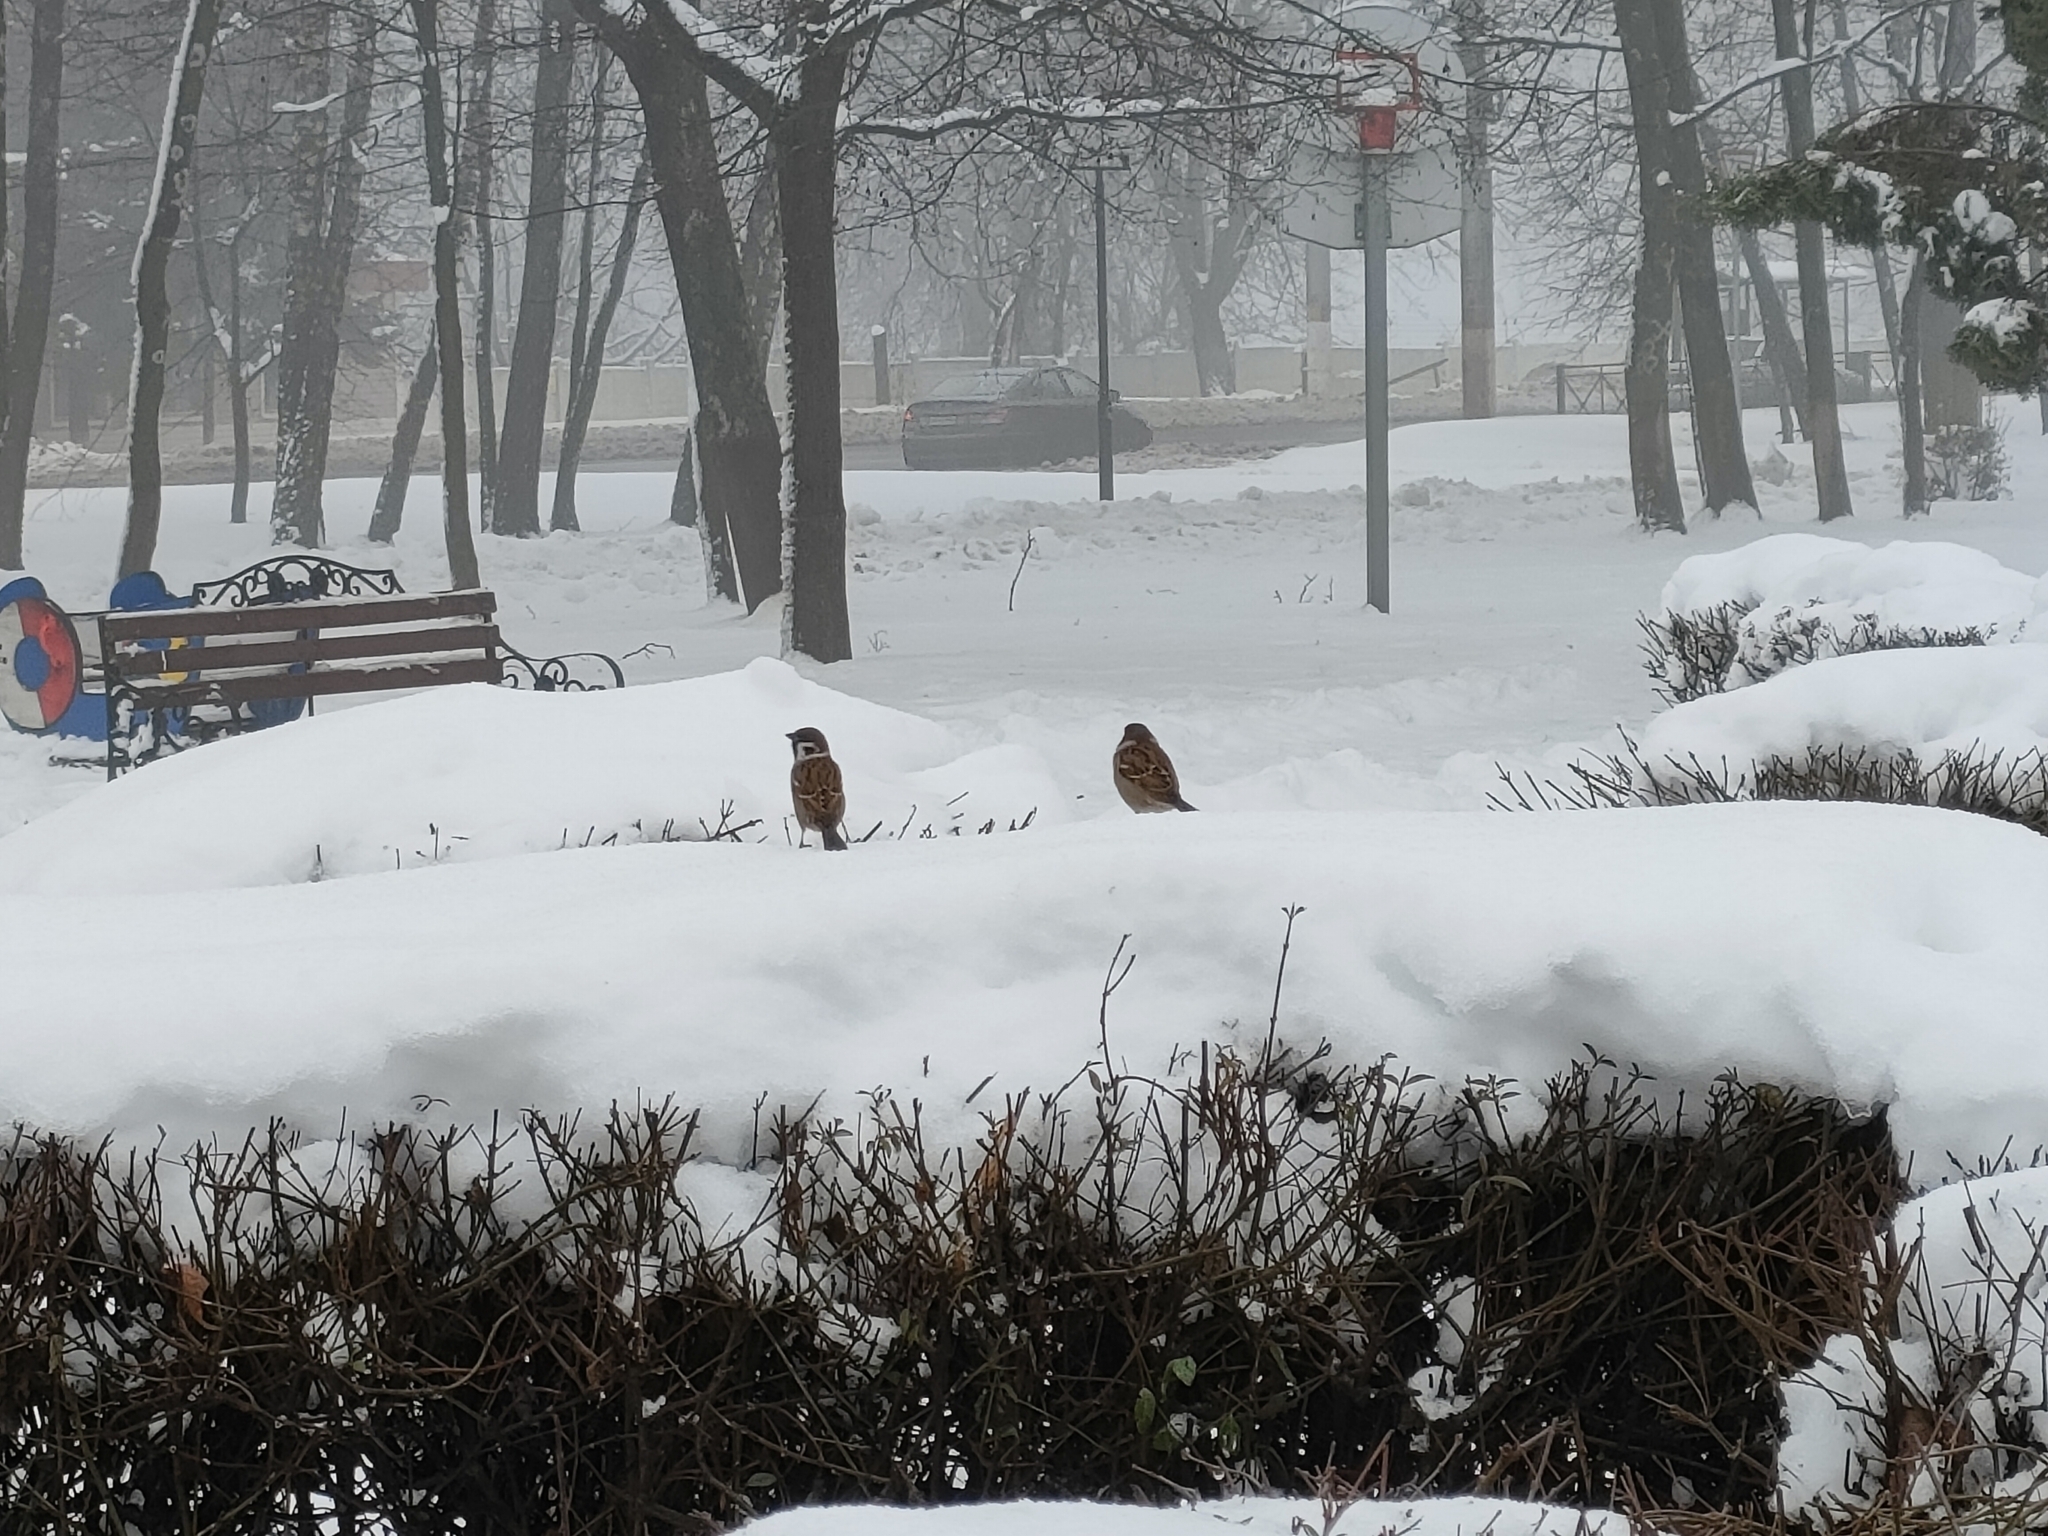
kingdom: Animalia
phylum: Chordata
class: Aves
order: Passeriformes
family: Passeridae
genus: Passer
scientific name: Passer montanus
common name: Eurasian tree sparrow
